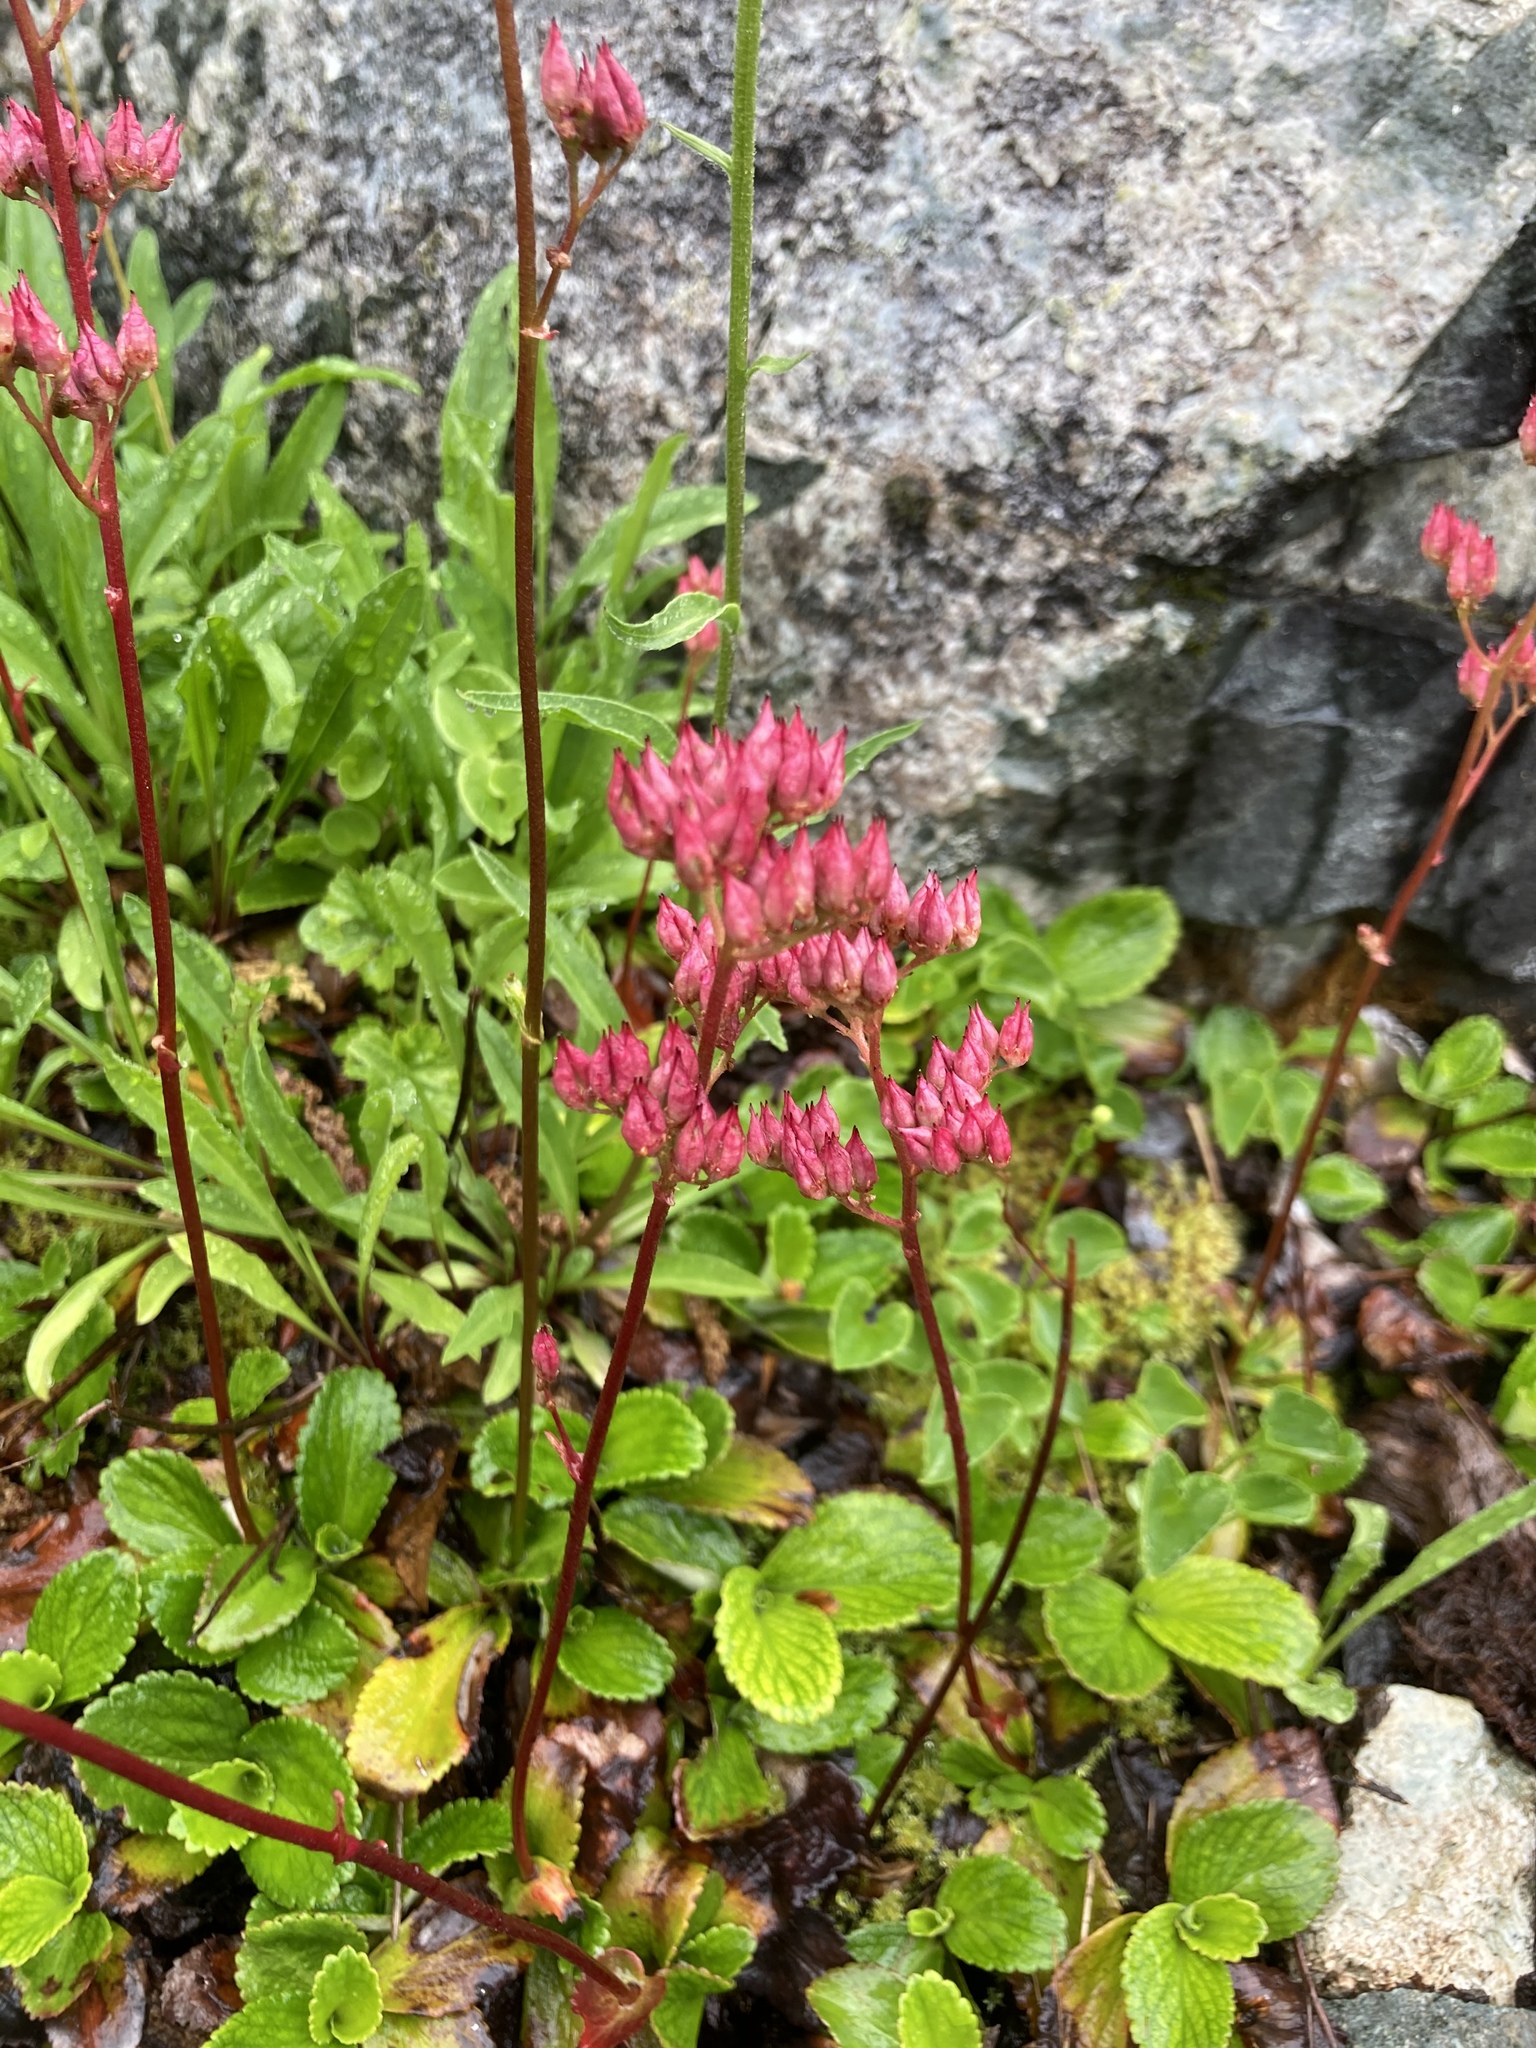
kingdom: Plantae
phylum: Tracheophyta
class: Magnoliopsida
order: Saxifragales
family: Saxifragaceae
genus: Leptarrhena
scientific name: Leptarrhena pyrolifolia
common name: Leatherleaf-saxifrage
